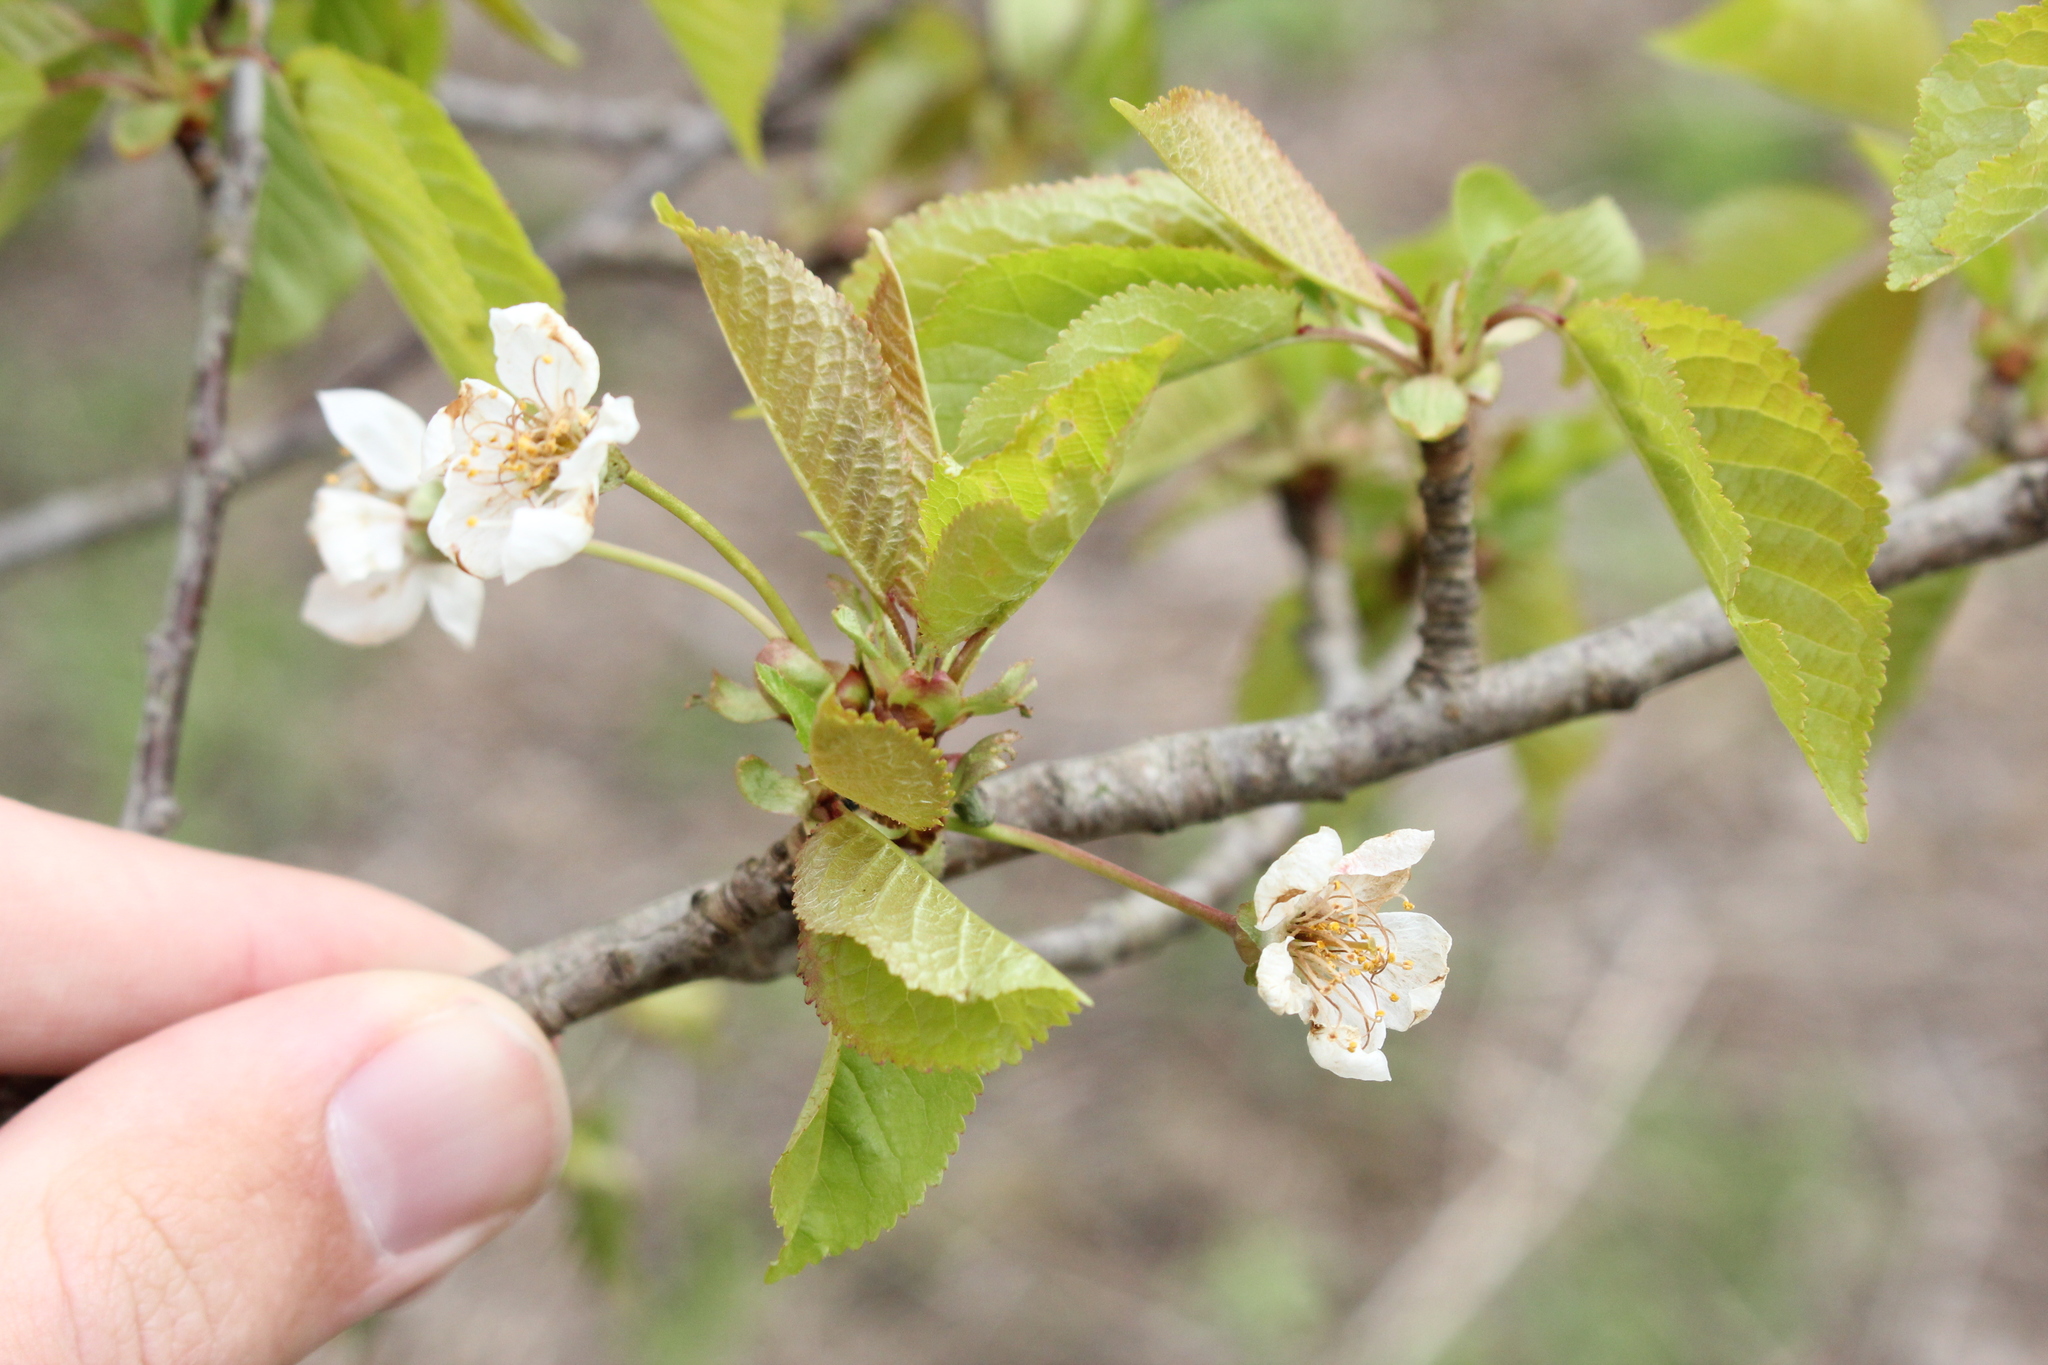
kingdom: Plantae
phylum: Tracheophyta
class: Magnoliopsida
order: Rosales
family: Rosaceae
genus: Prunus
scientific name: Prunus avium
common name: Sweet cherry
